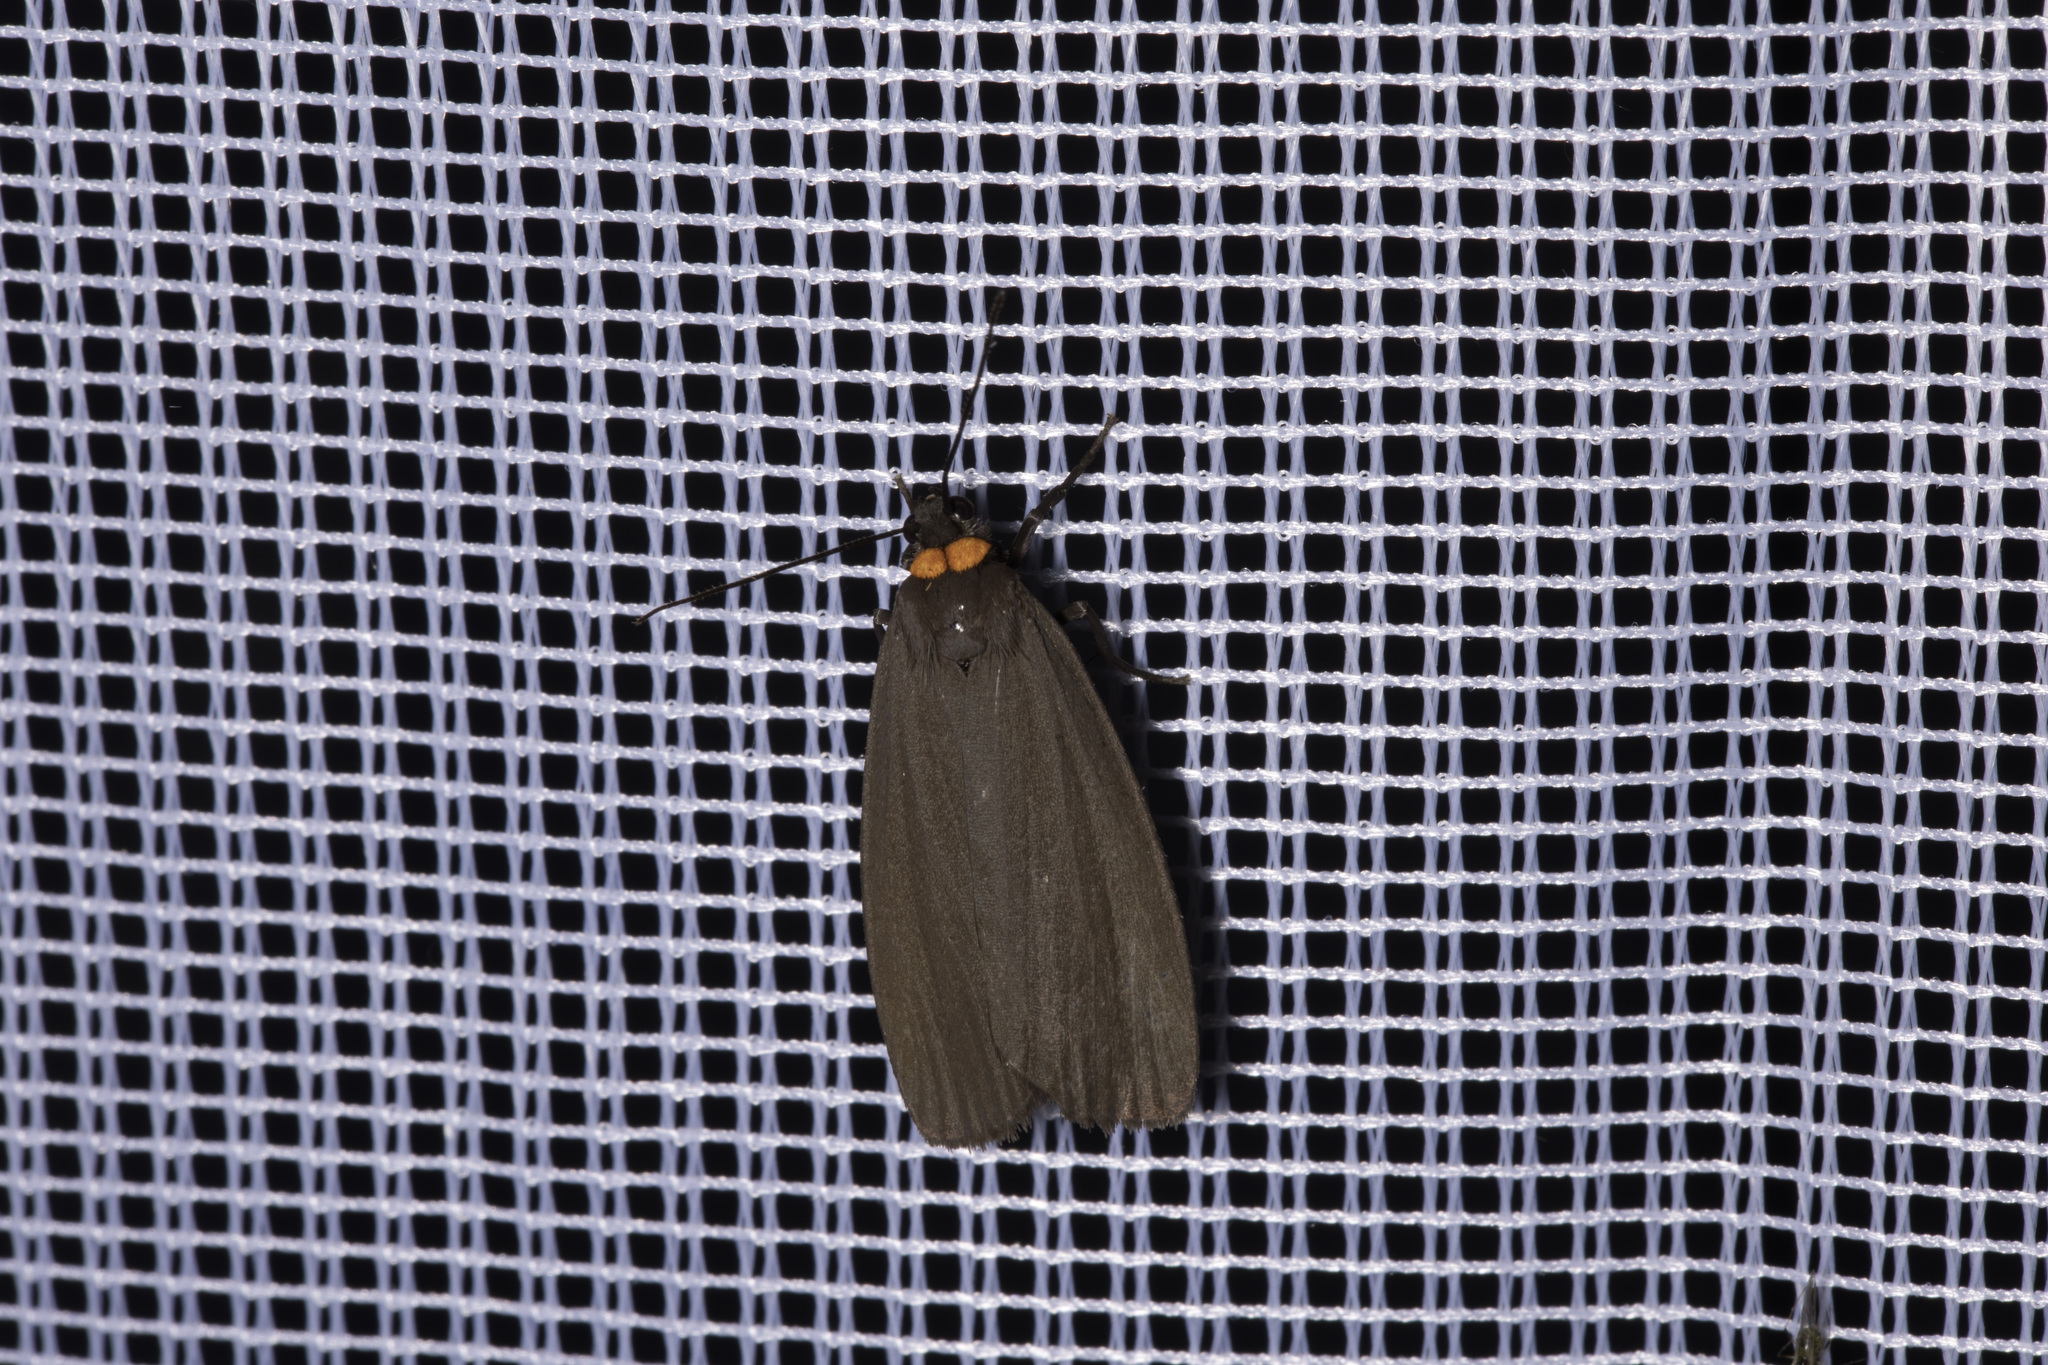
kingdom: Animalia
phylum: Arthropoda
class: Insecta
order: Lepidoptera
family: Erebidae
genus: Atolmis
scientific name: Atolmis rubricollis
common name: Red-necked footman
